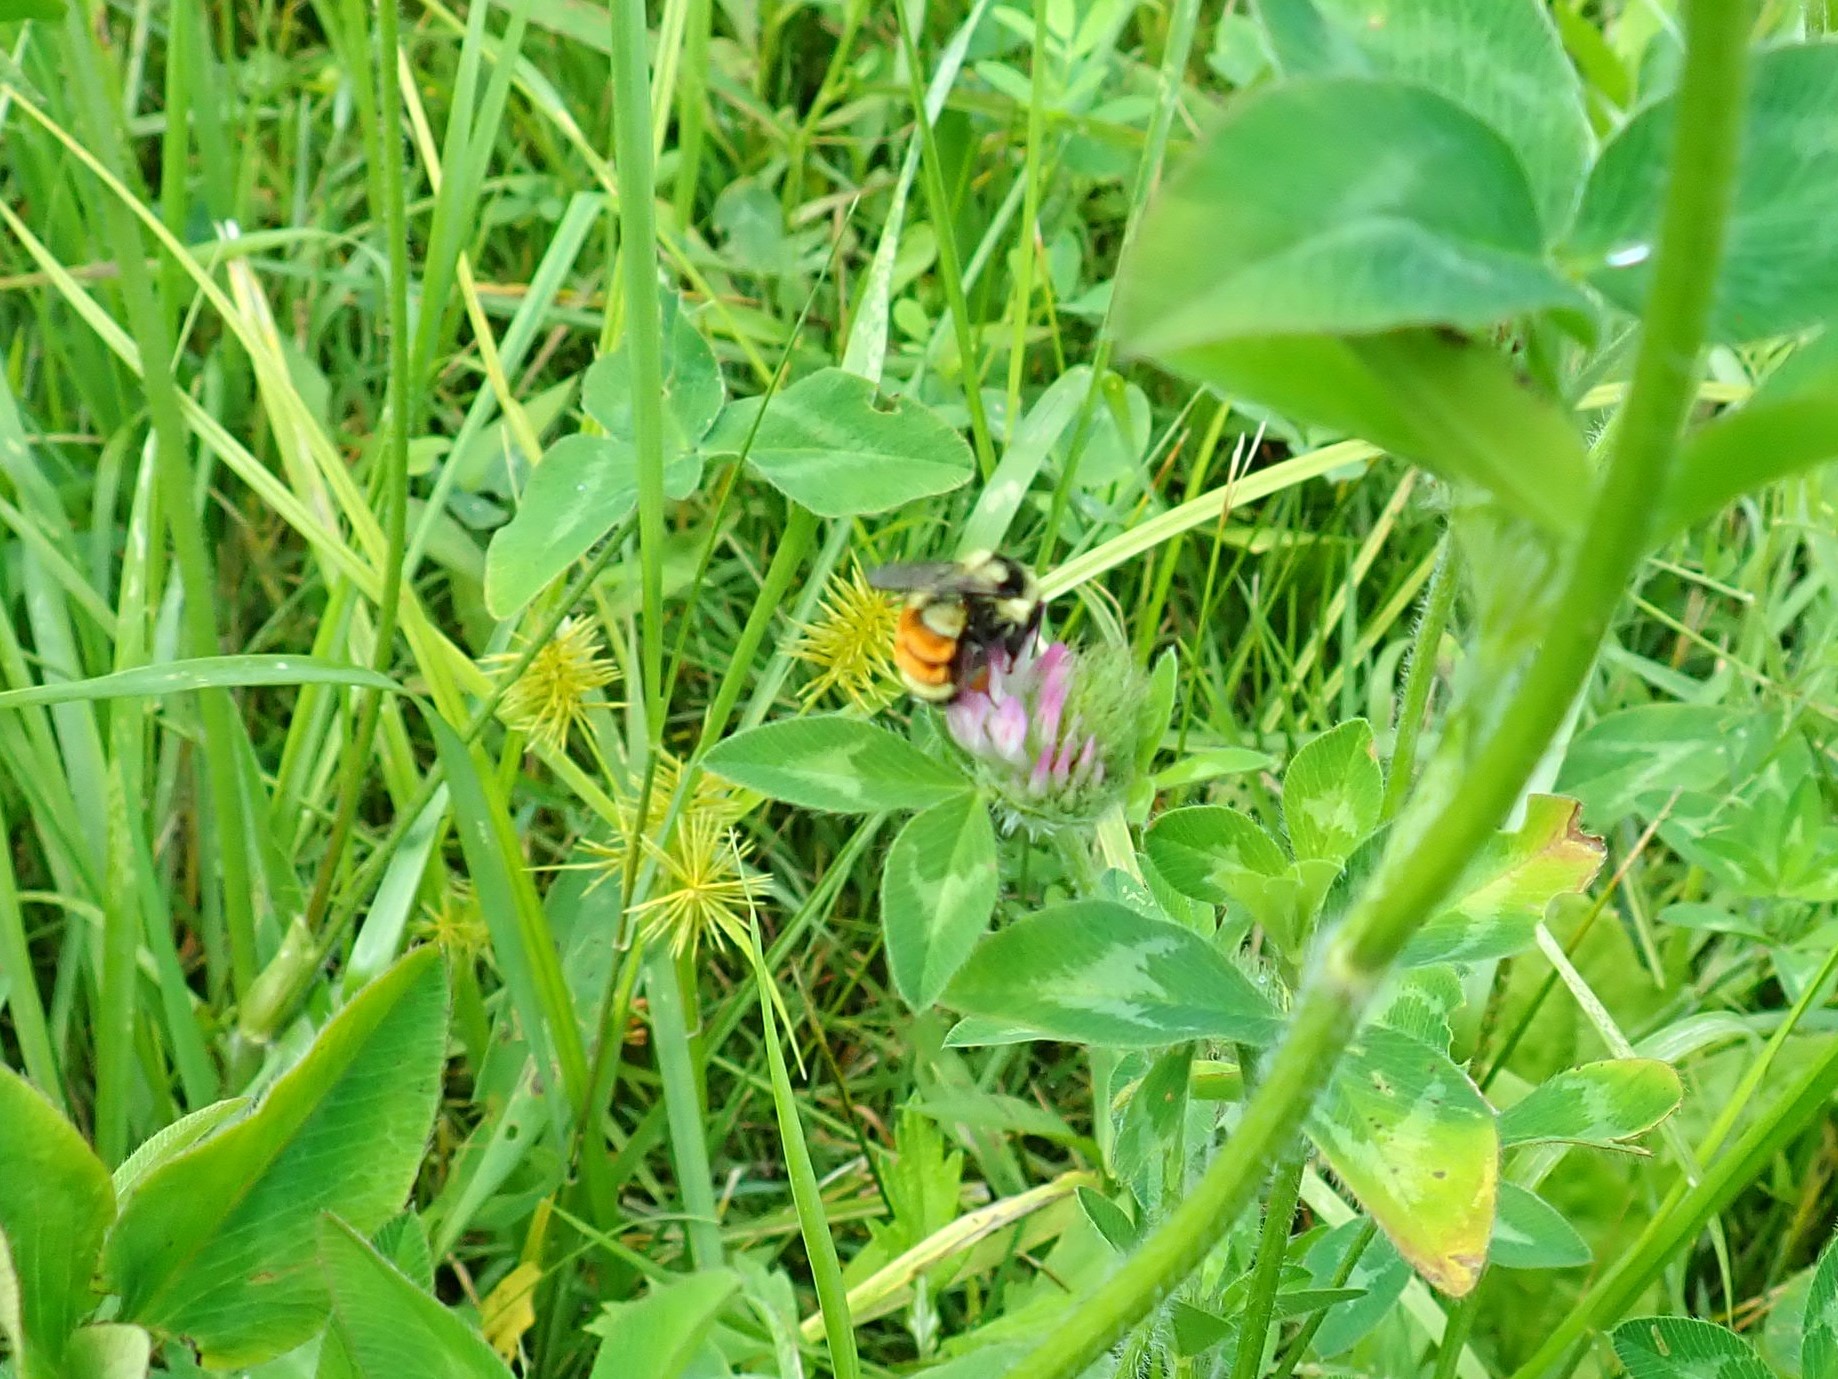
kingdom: Animalia
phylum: Arthropoda
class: Insecta
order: Hymenoptera
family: Apidae
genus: Bombus
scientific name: Bombus ternarius
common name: Tri-colored bumble bee
